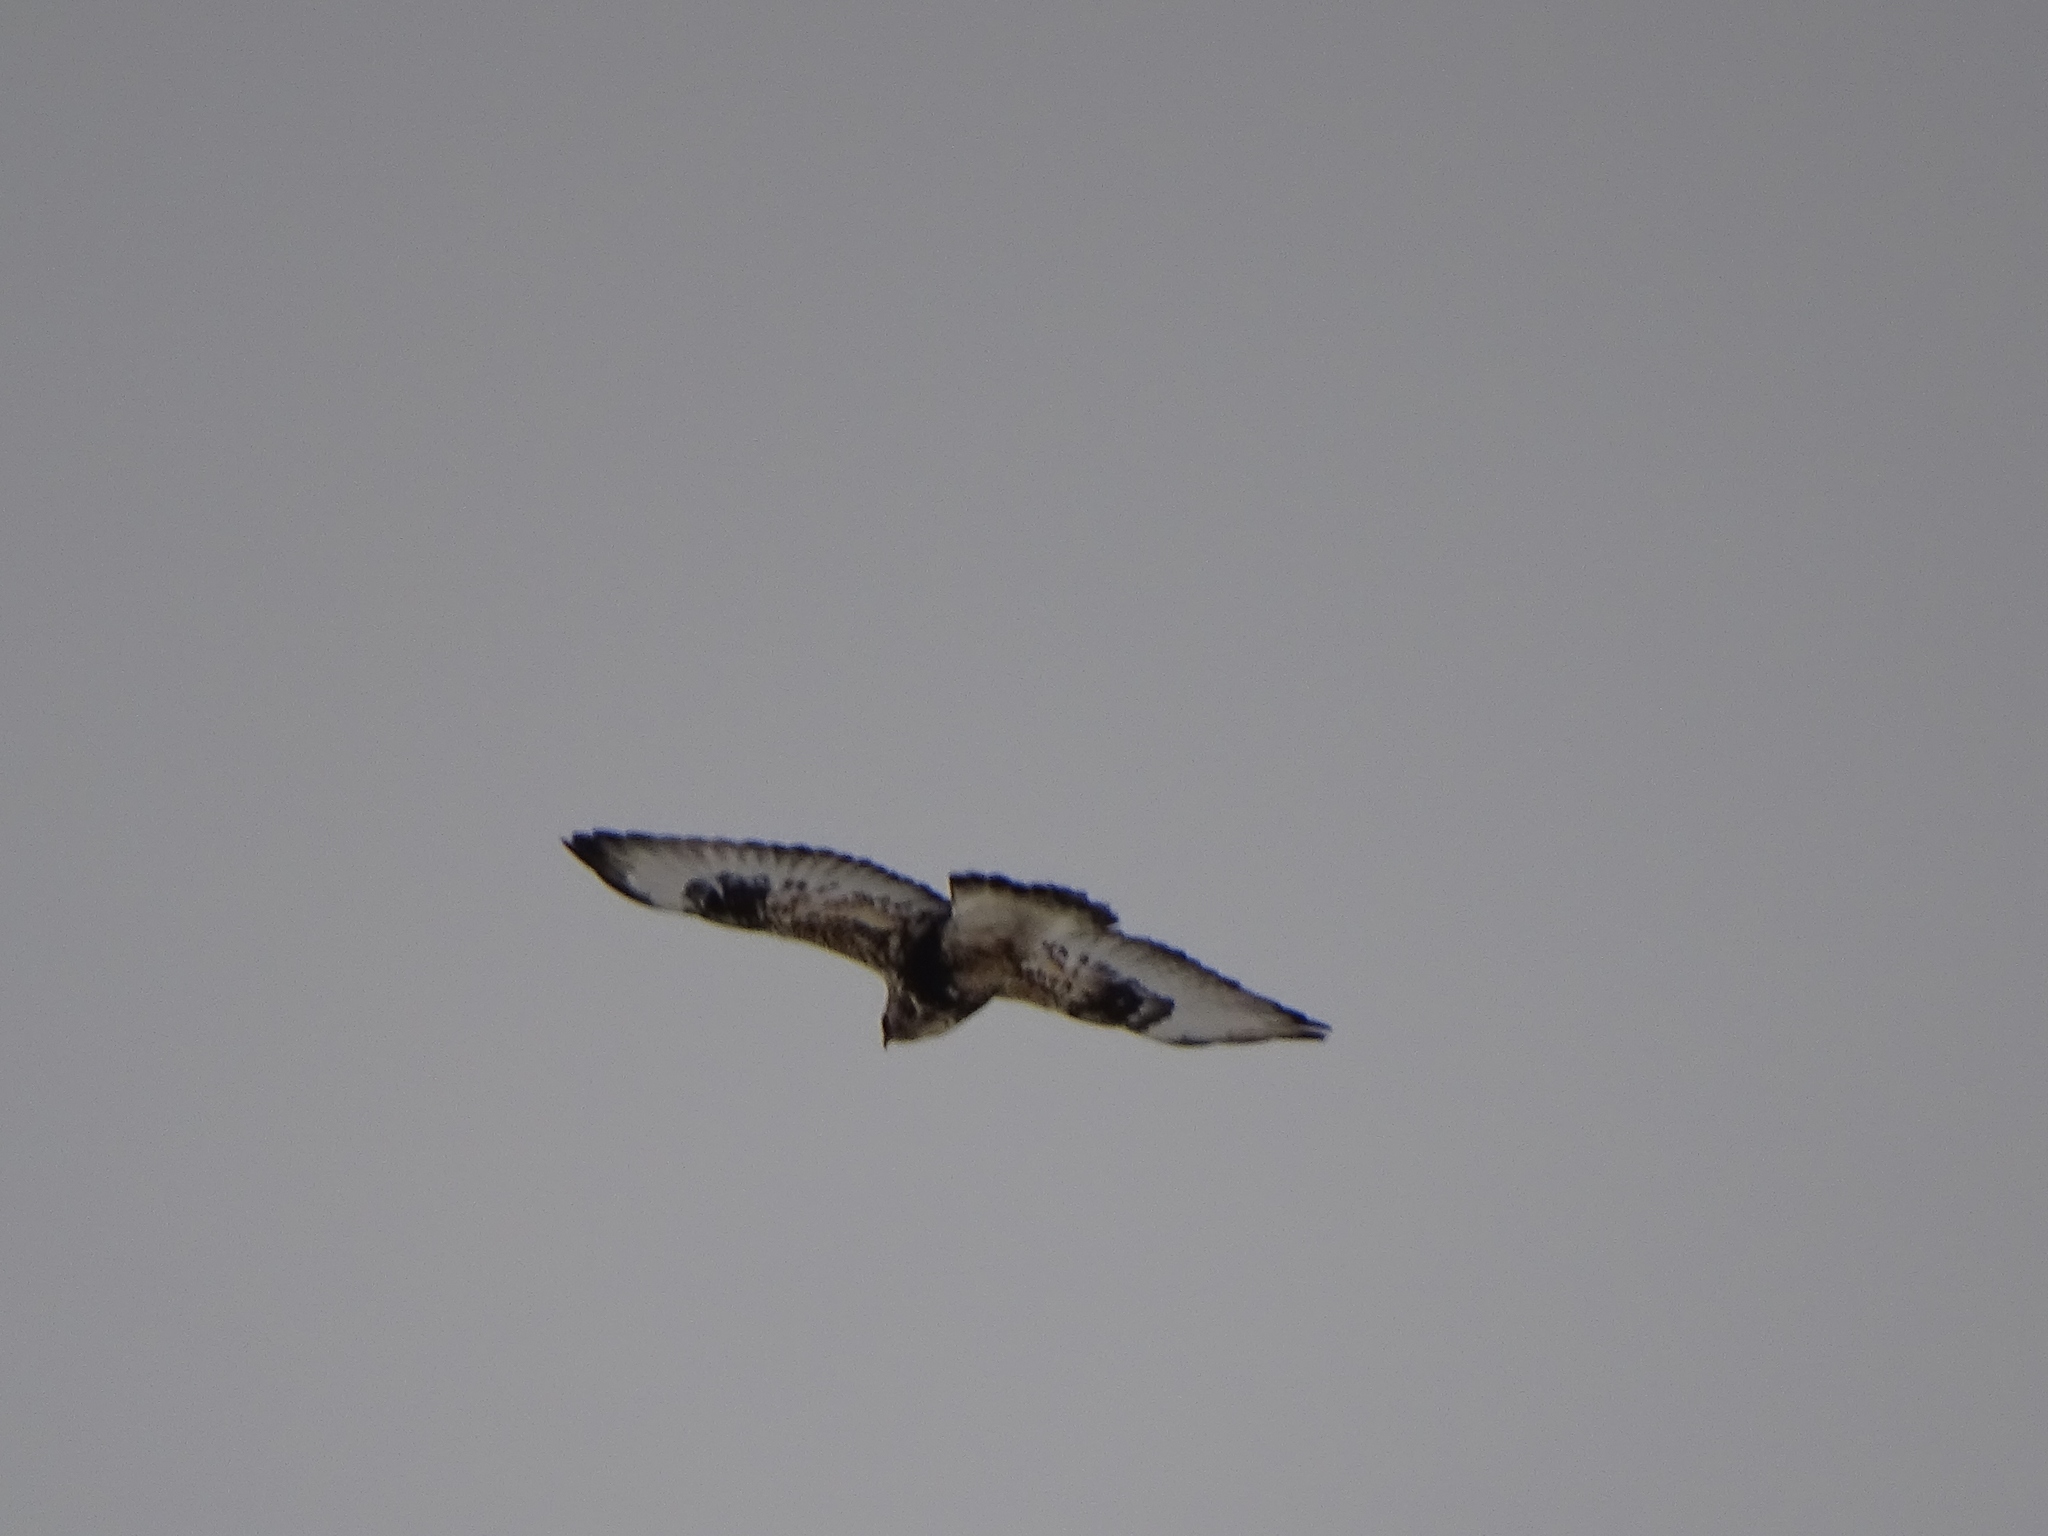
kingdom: Animalia
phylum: Chordata
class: Aves
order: Accipitriformes
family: Accipitridae
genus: Buteo
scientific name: Buteo lagopus
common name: Rough-legged buzzard
